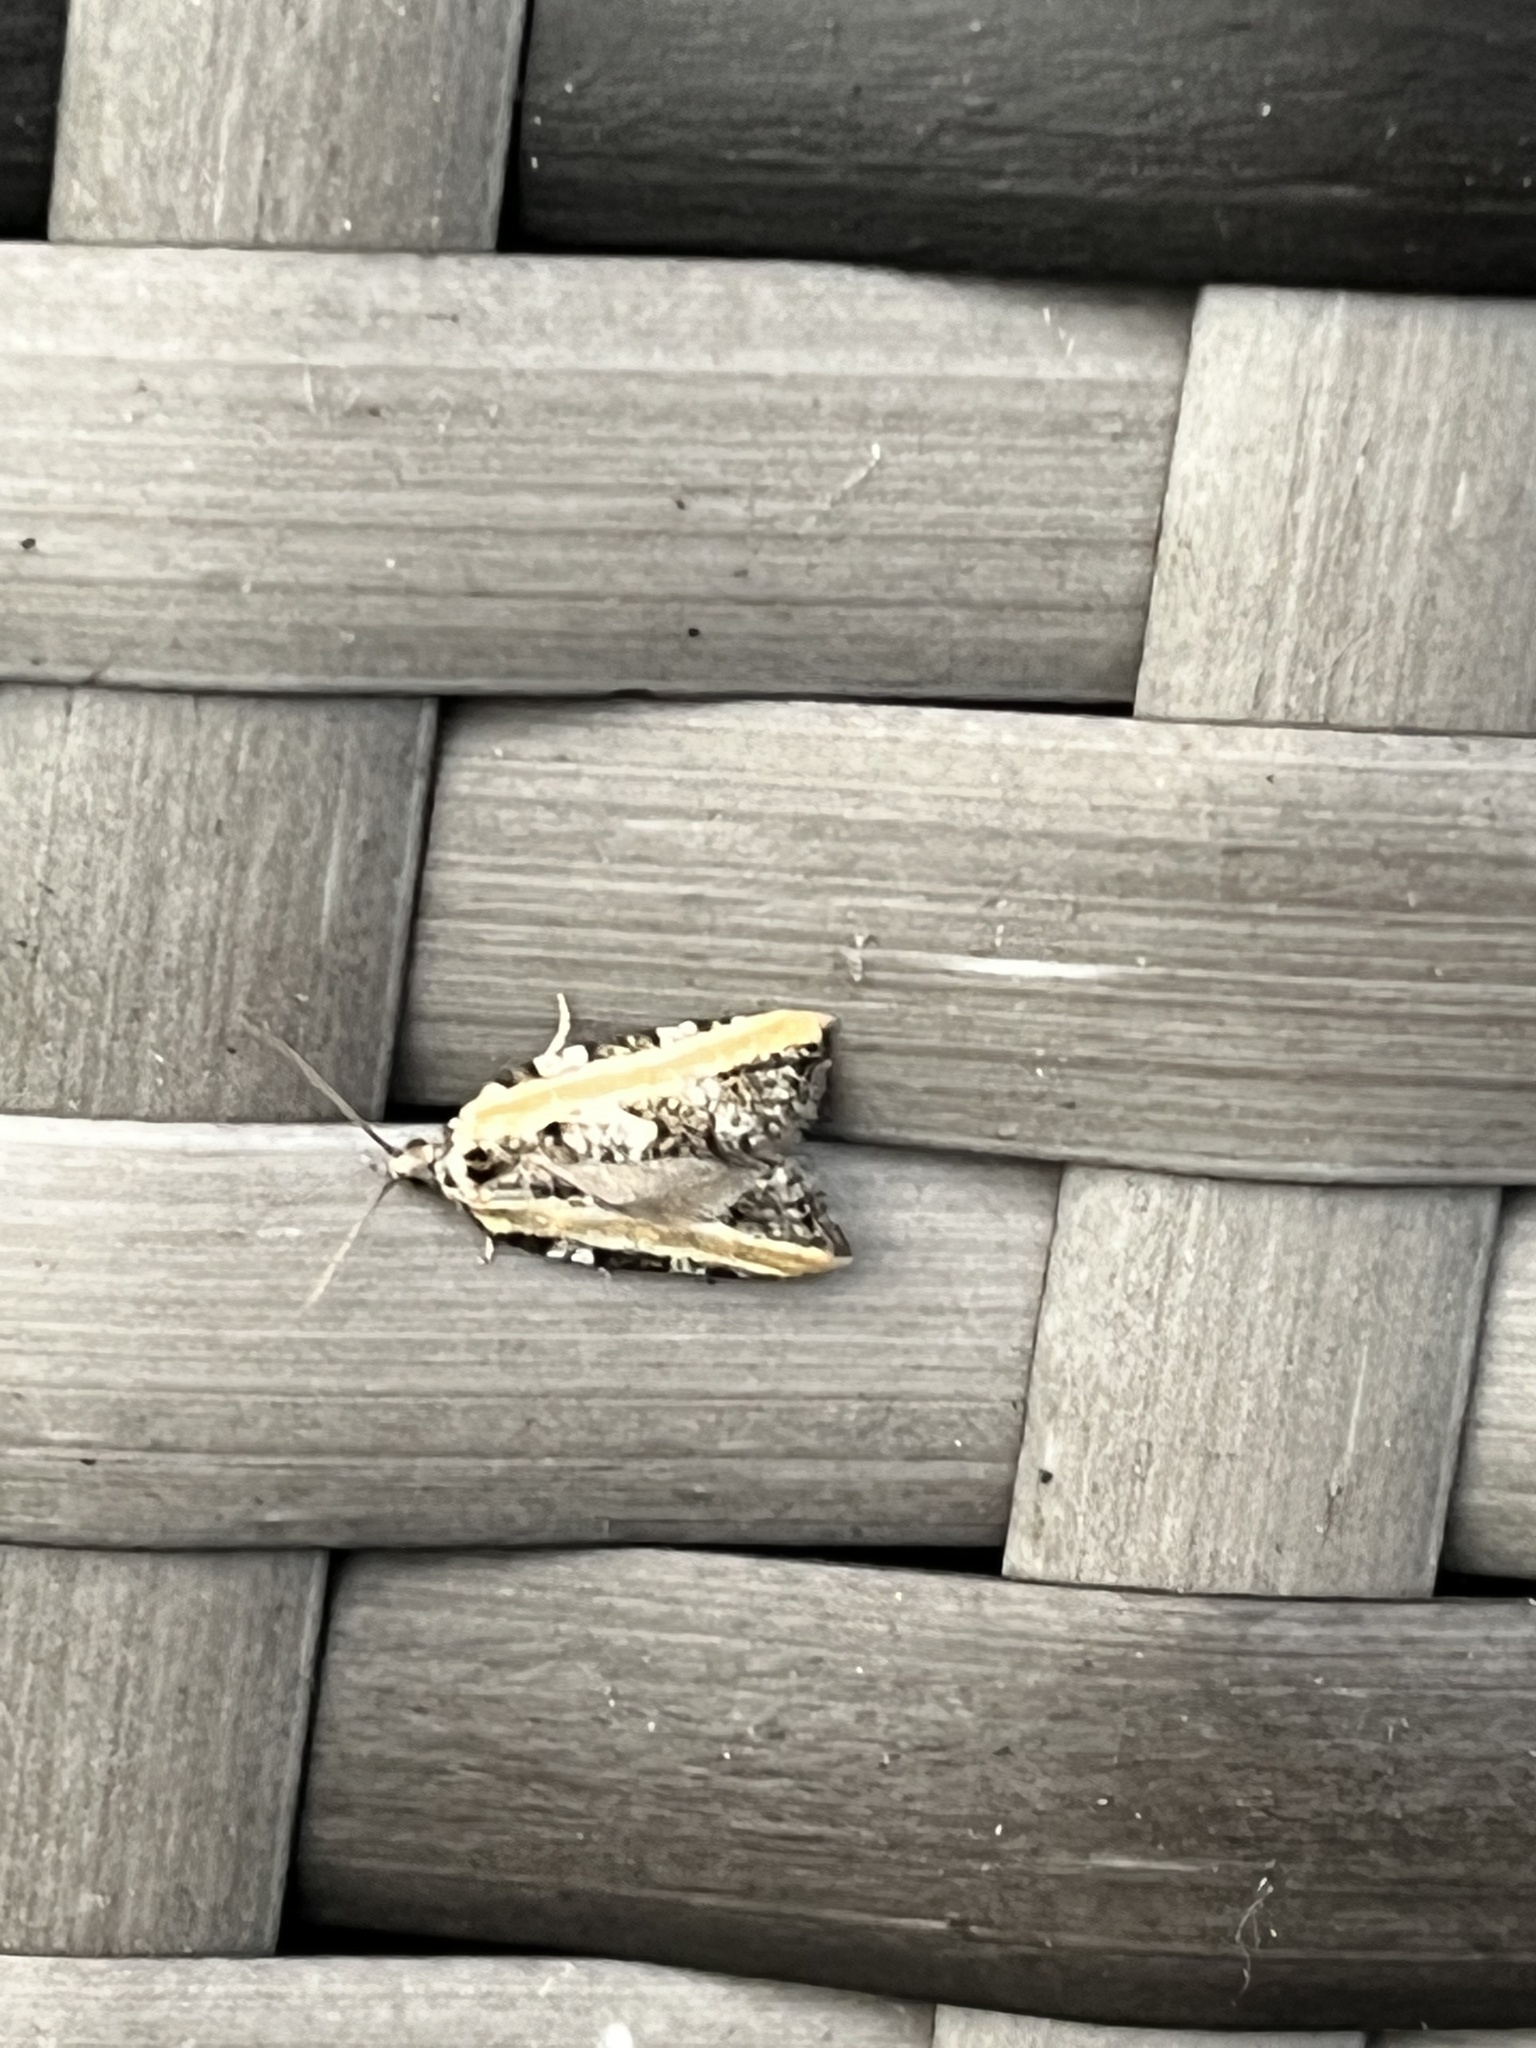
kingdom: Animalia
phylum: Arthropoda
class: Insecta
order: Lepidoptera
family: Tortricidae
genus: Acleris
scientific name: Acleris variana
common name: Eastern black-headed budworm moth
